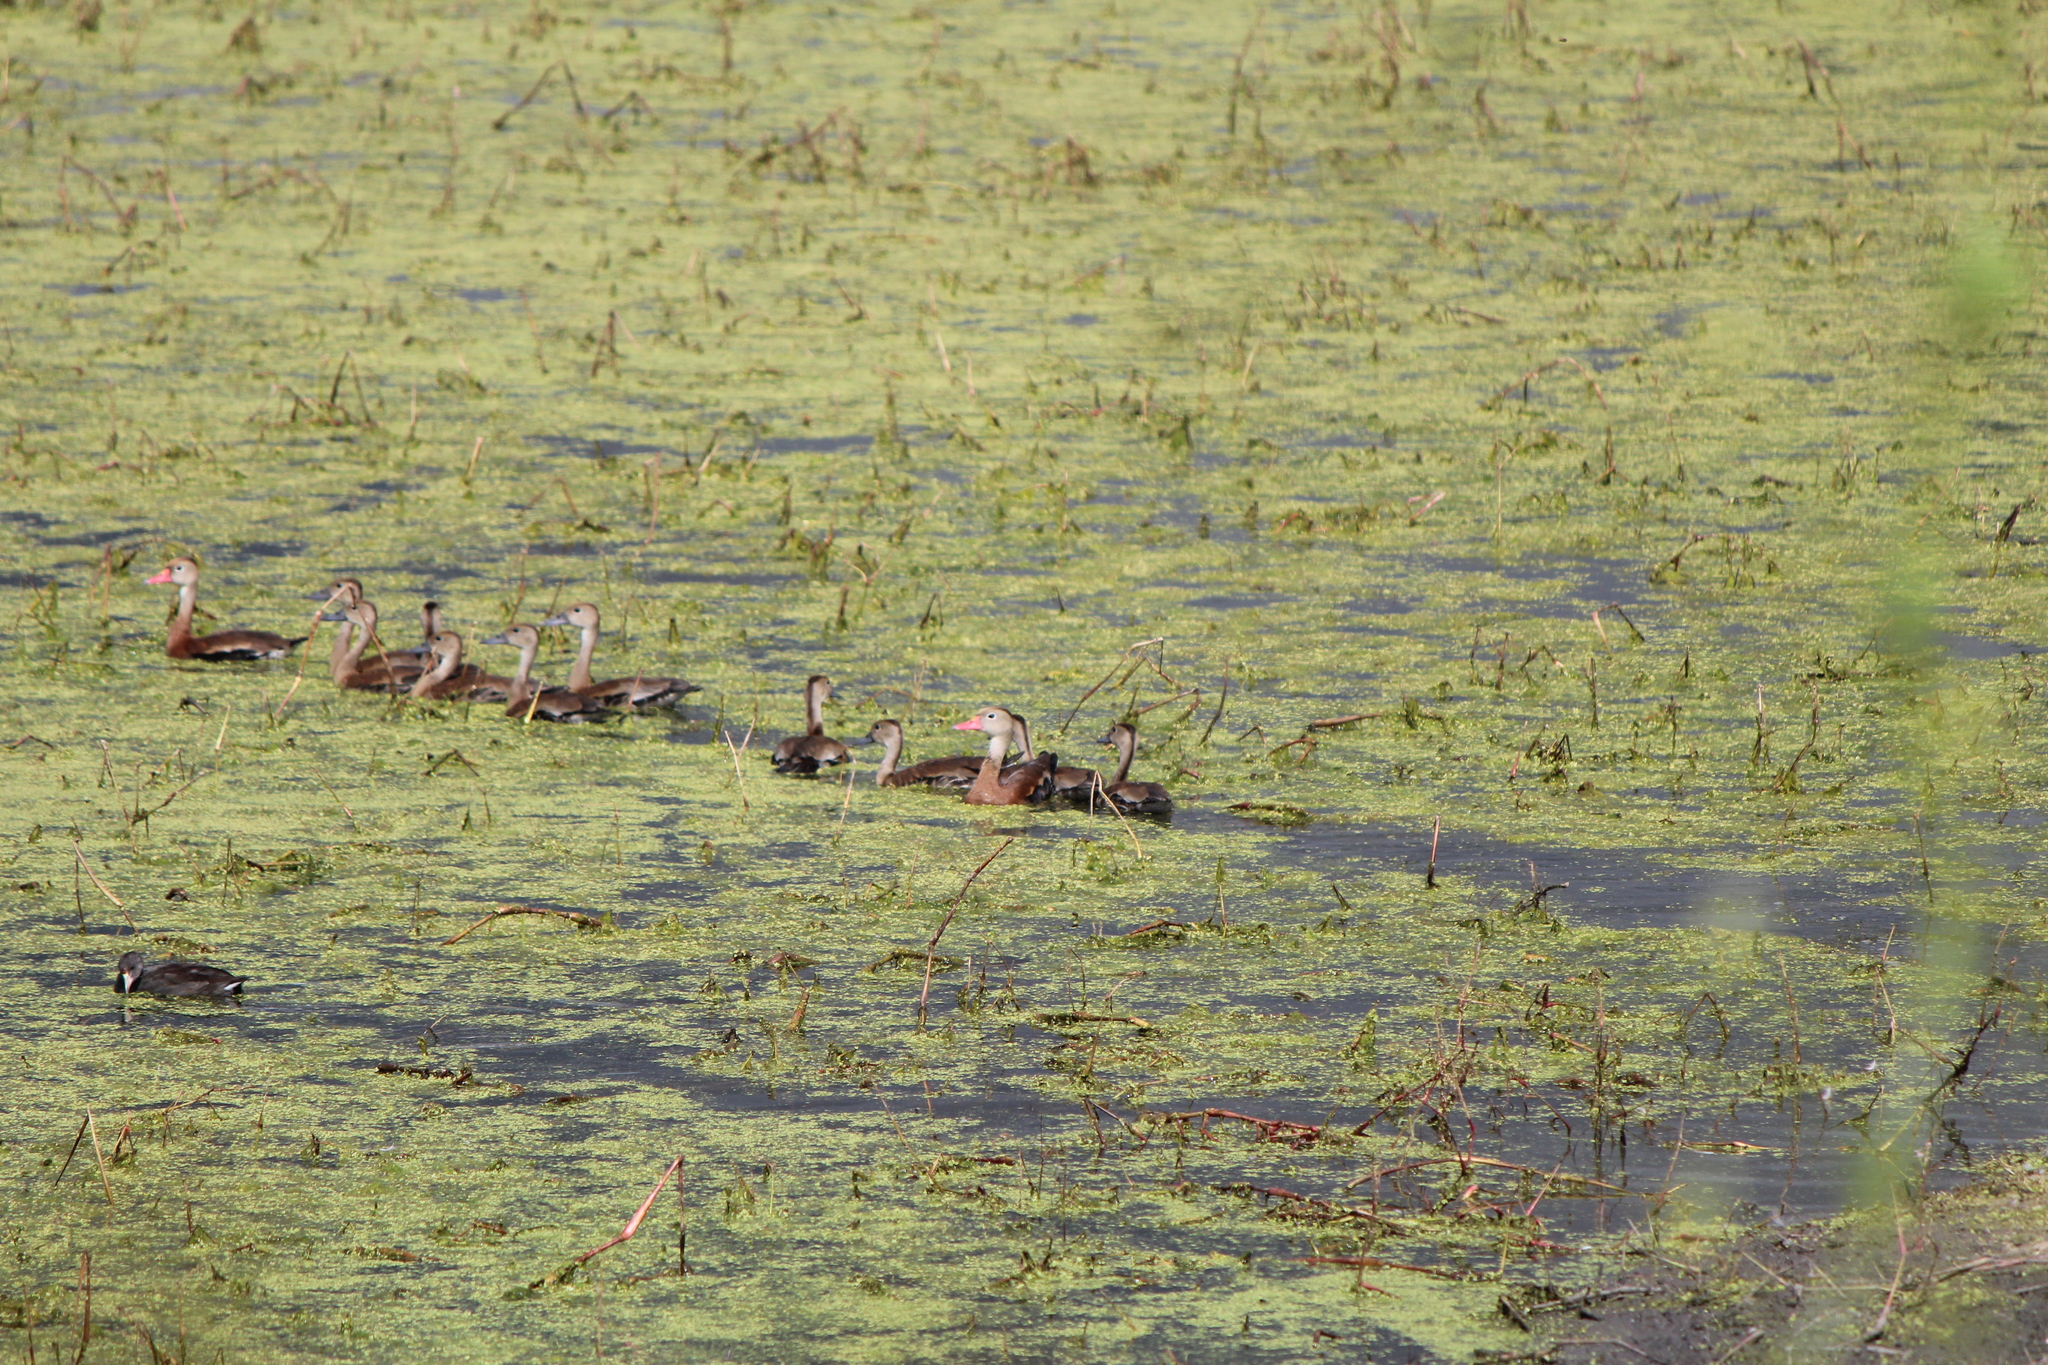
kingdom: Animalia
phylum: Chordata
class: Aves
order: Anseriformes
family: Anatidae
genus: Dendrocygna
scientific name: Dendrocygna autumnalis
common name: Black-bellied whistling duck
